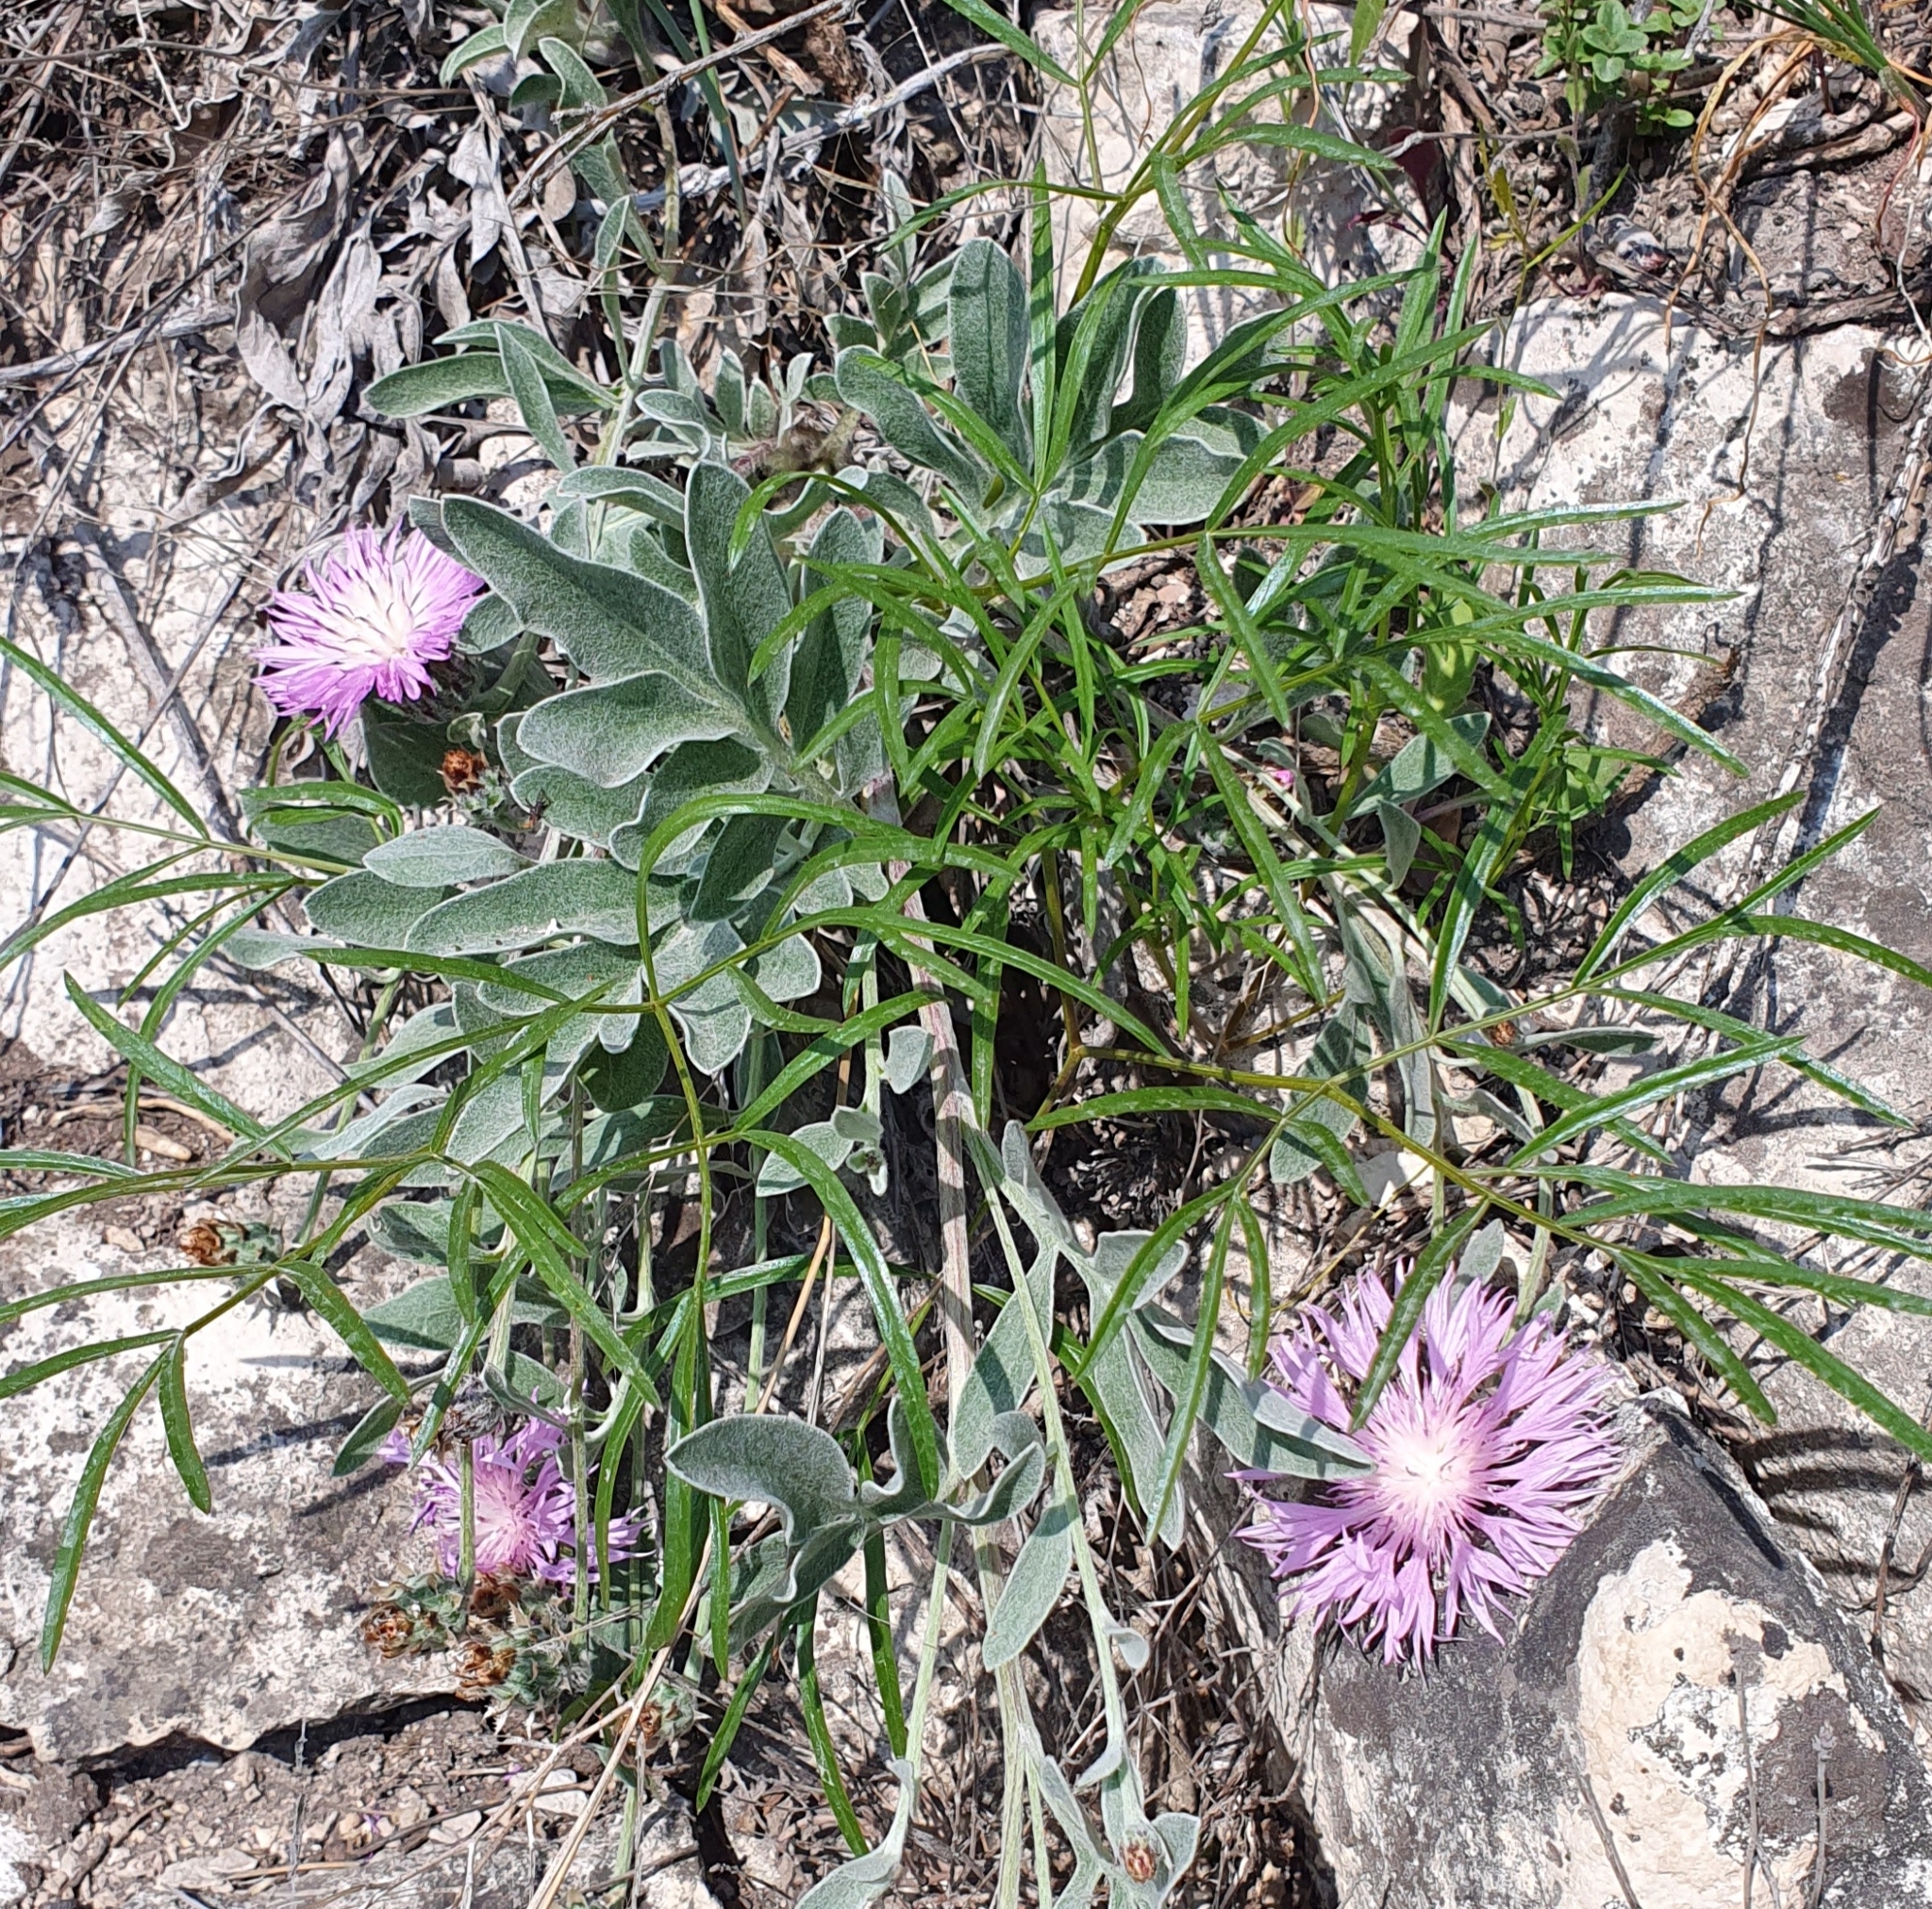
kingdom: Plantae
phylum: Tracheophyta
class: Magnoliopsida
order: Asterales
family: Asteraceae
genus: Psephellus
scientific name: Psephellus marschallianus
